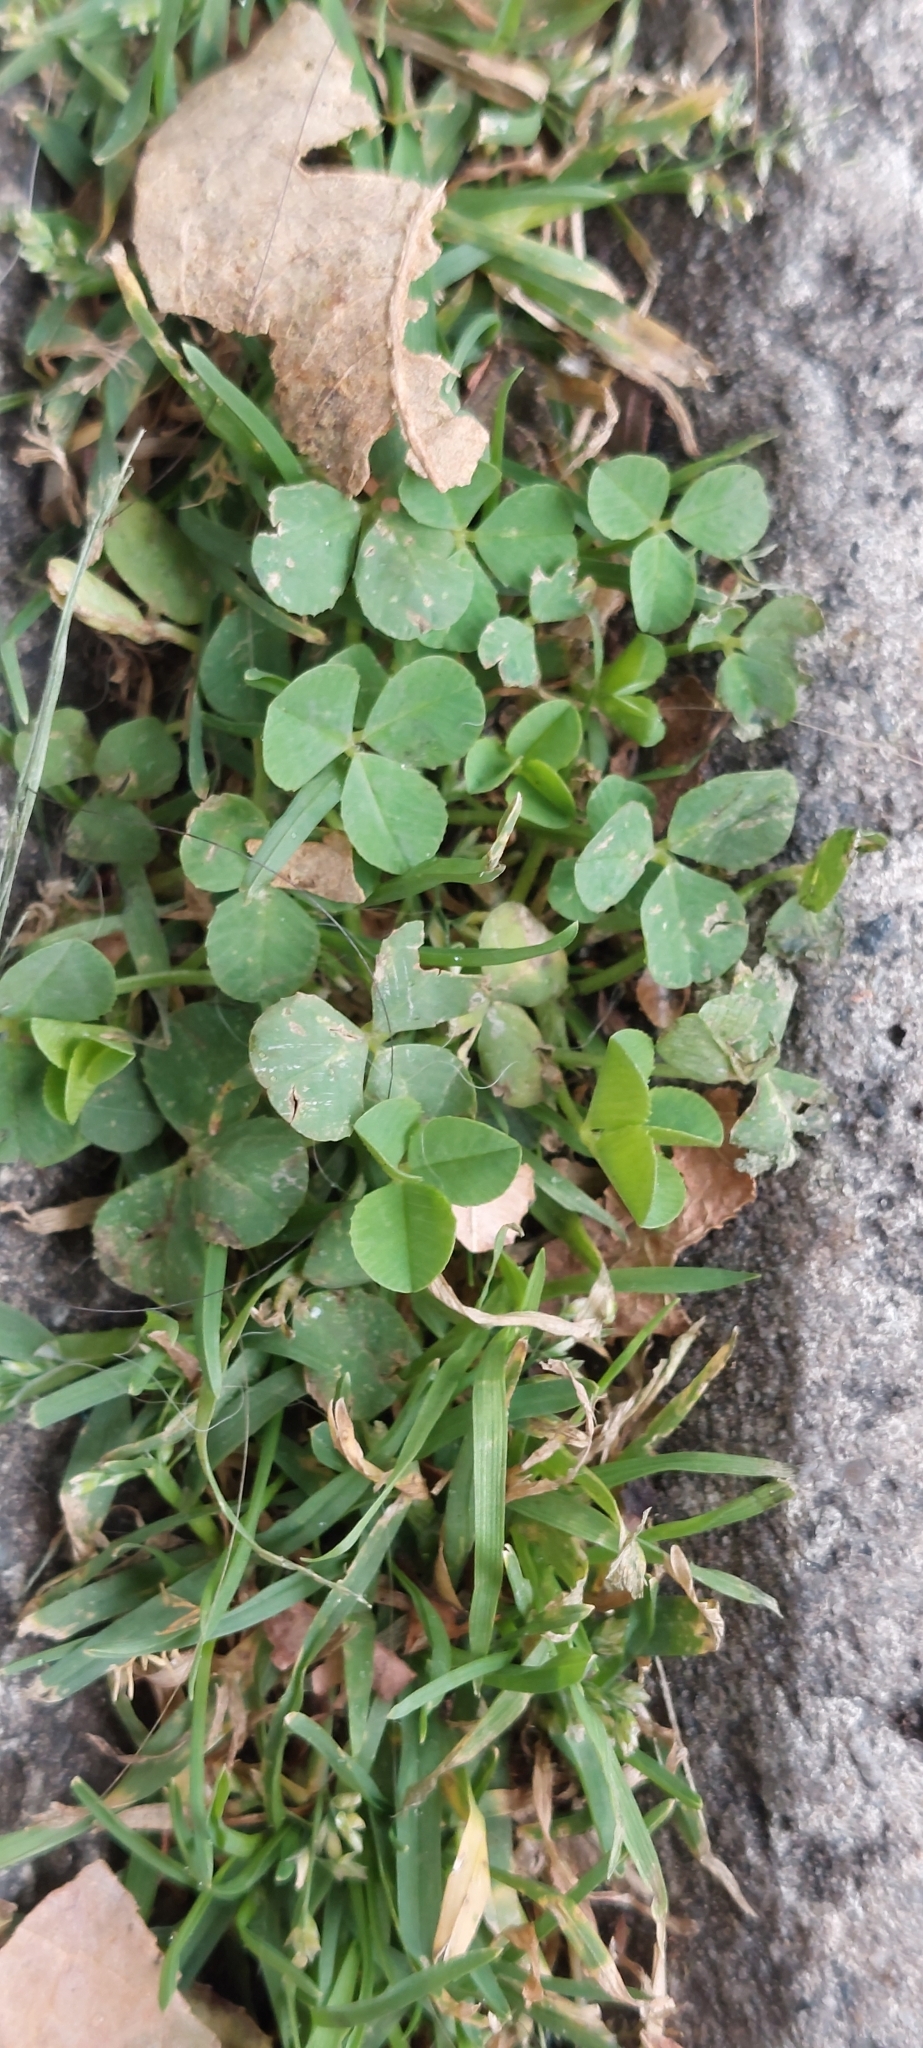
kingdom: Plantae
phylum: Tracheophyta
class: Magnoliopsida
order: Fabales
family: Fabaceae
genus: Trifolium
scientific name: Trifolium repens
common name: White clover
